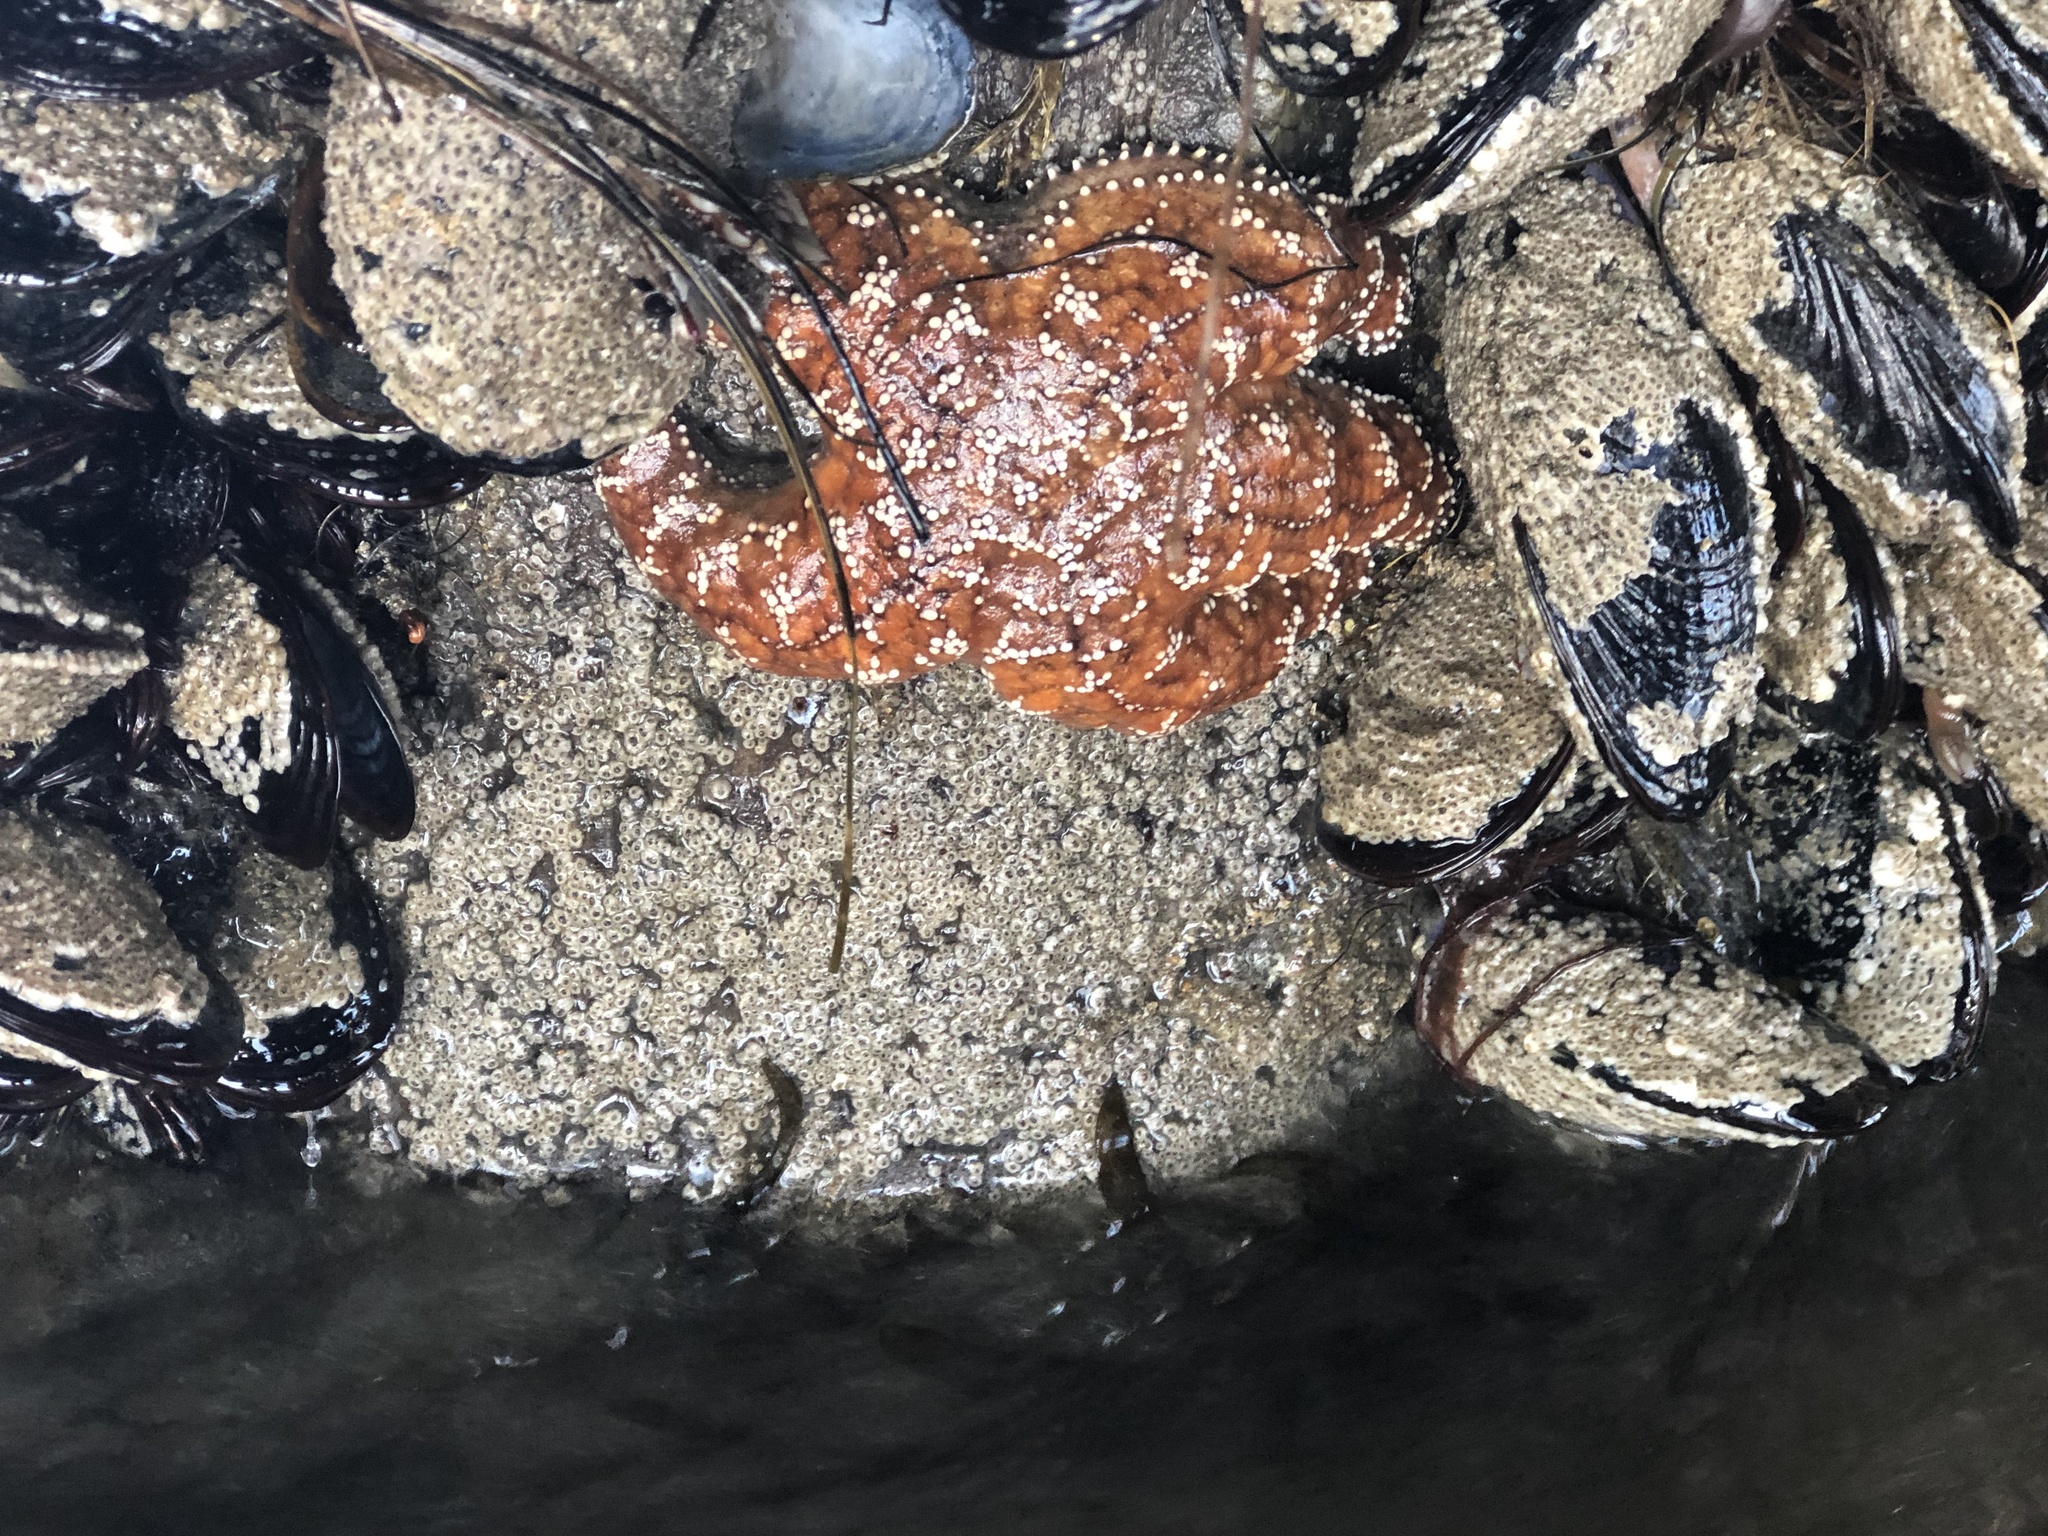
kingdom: Animalia
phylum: Echinodermata
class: Asteroidea
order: Forcipulatida
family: Asteriidae
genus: Pisaster
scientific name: Pisaster ochraceus
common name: Ochre stars
